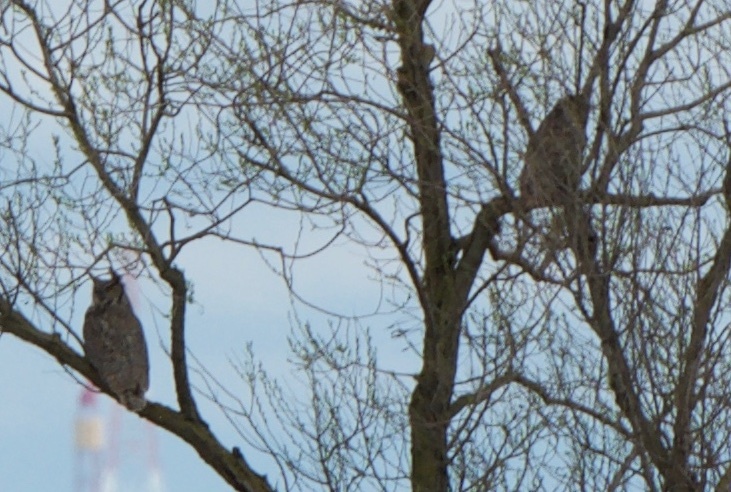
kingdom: Animalia
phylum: Chordata
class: Aves
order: Strigiformes
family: Strigidae
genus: Bubo
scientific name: Bubo virginianus
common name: Great horned owl
